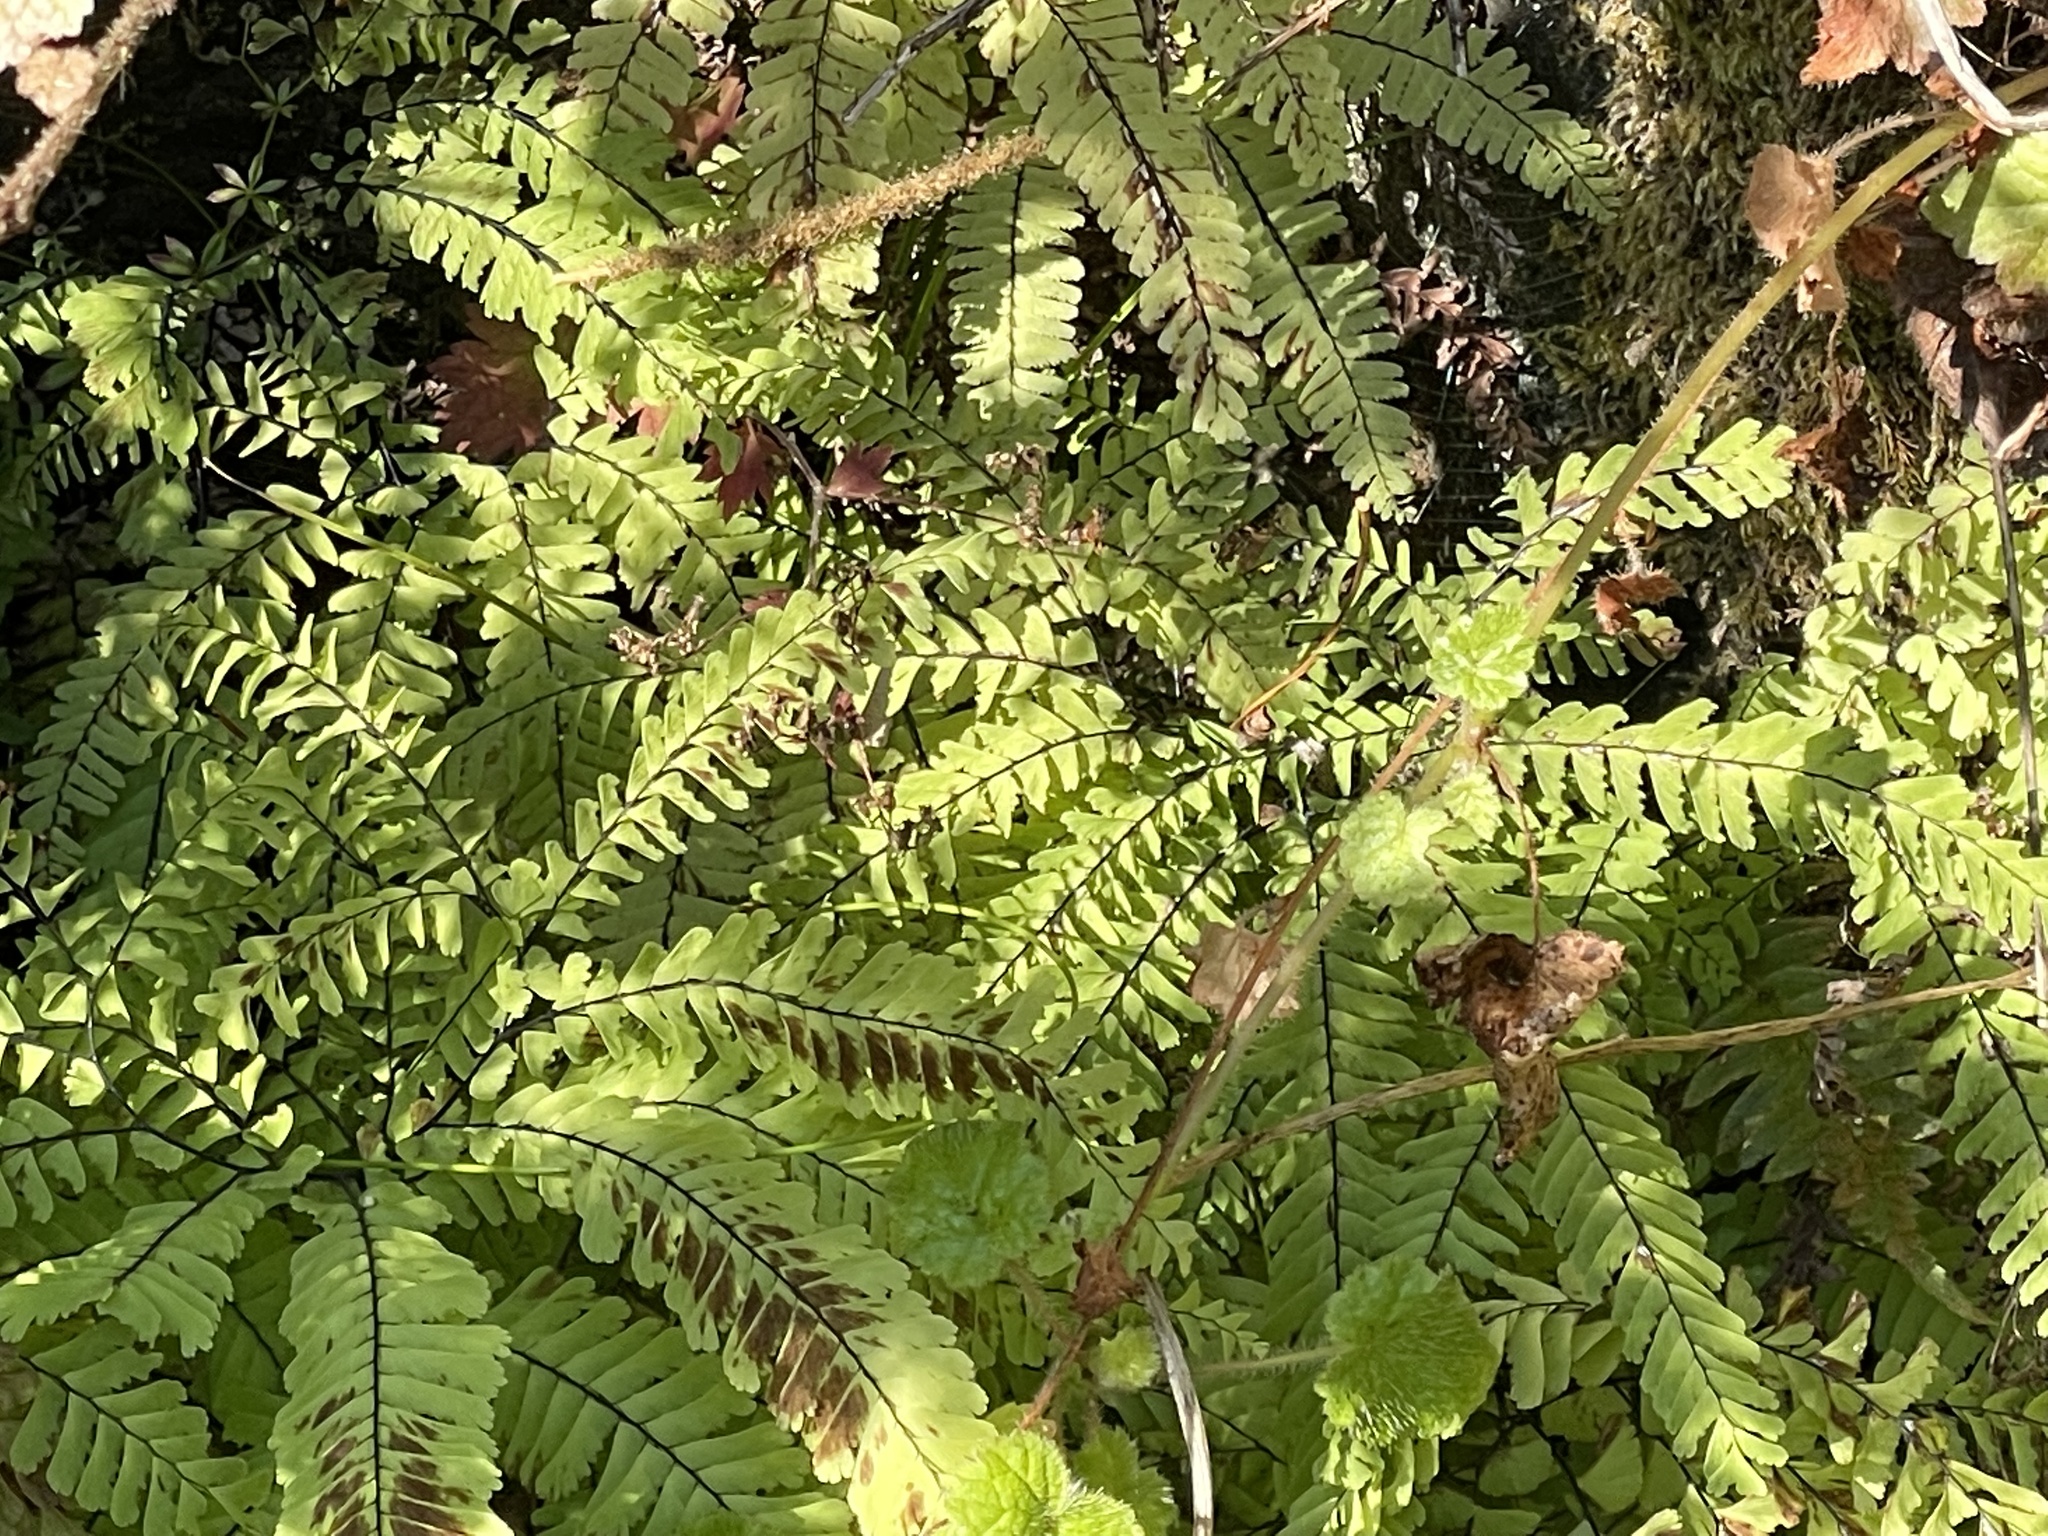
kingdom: Plantae
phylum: Tracheophyta
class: Polypodiopsida
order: Polypodiales
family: Pteridaceae
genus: Adiantum
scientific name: Adiantum aleuticum
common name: Aleutian maidenhair fern
